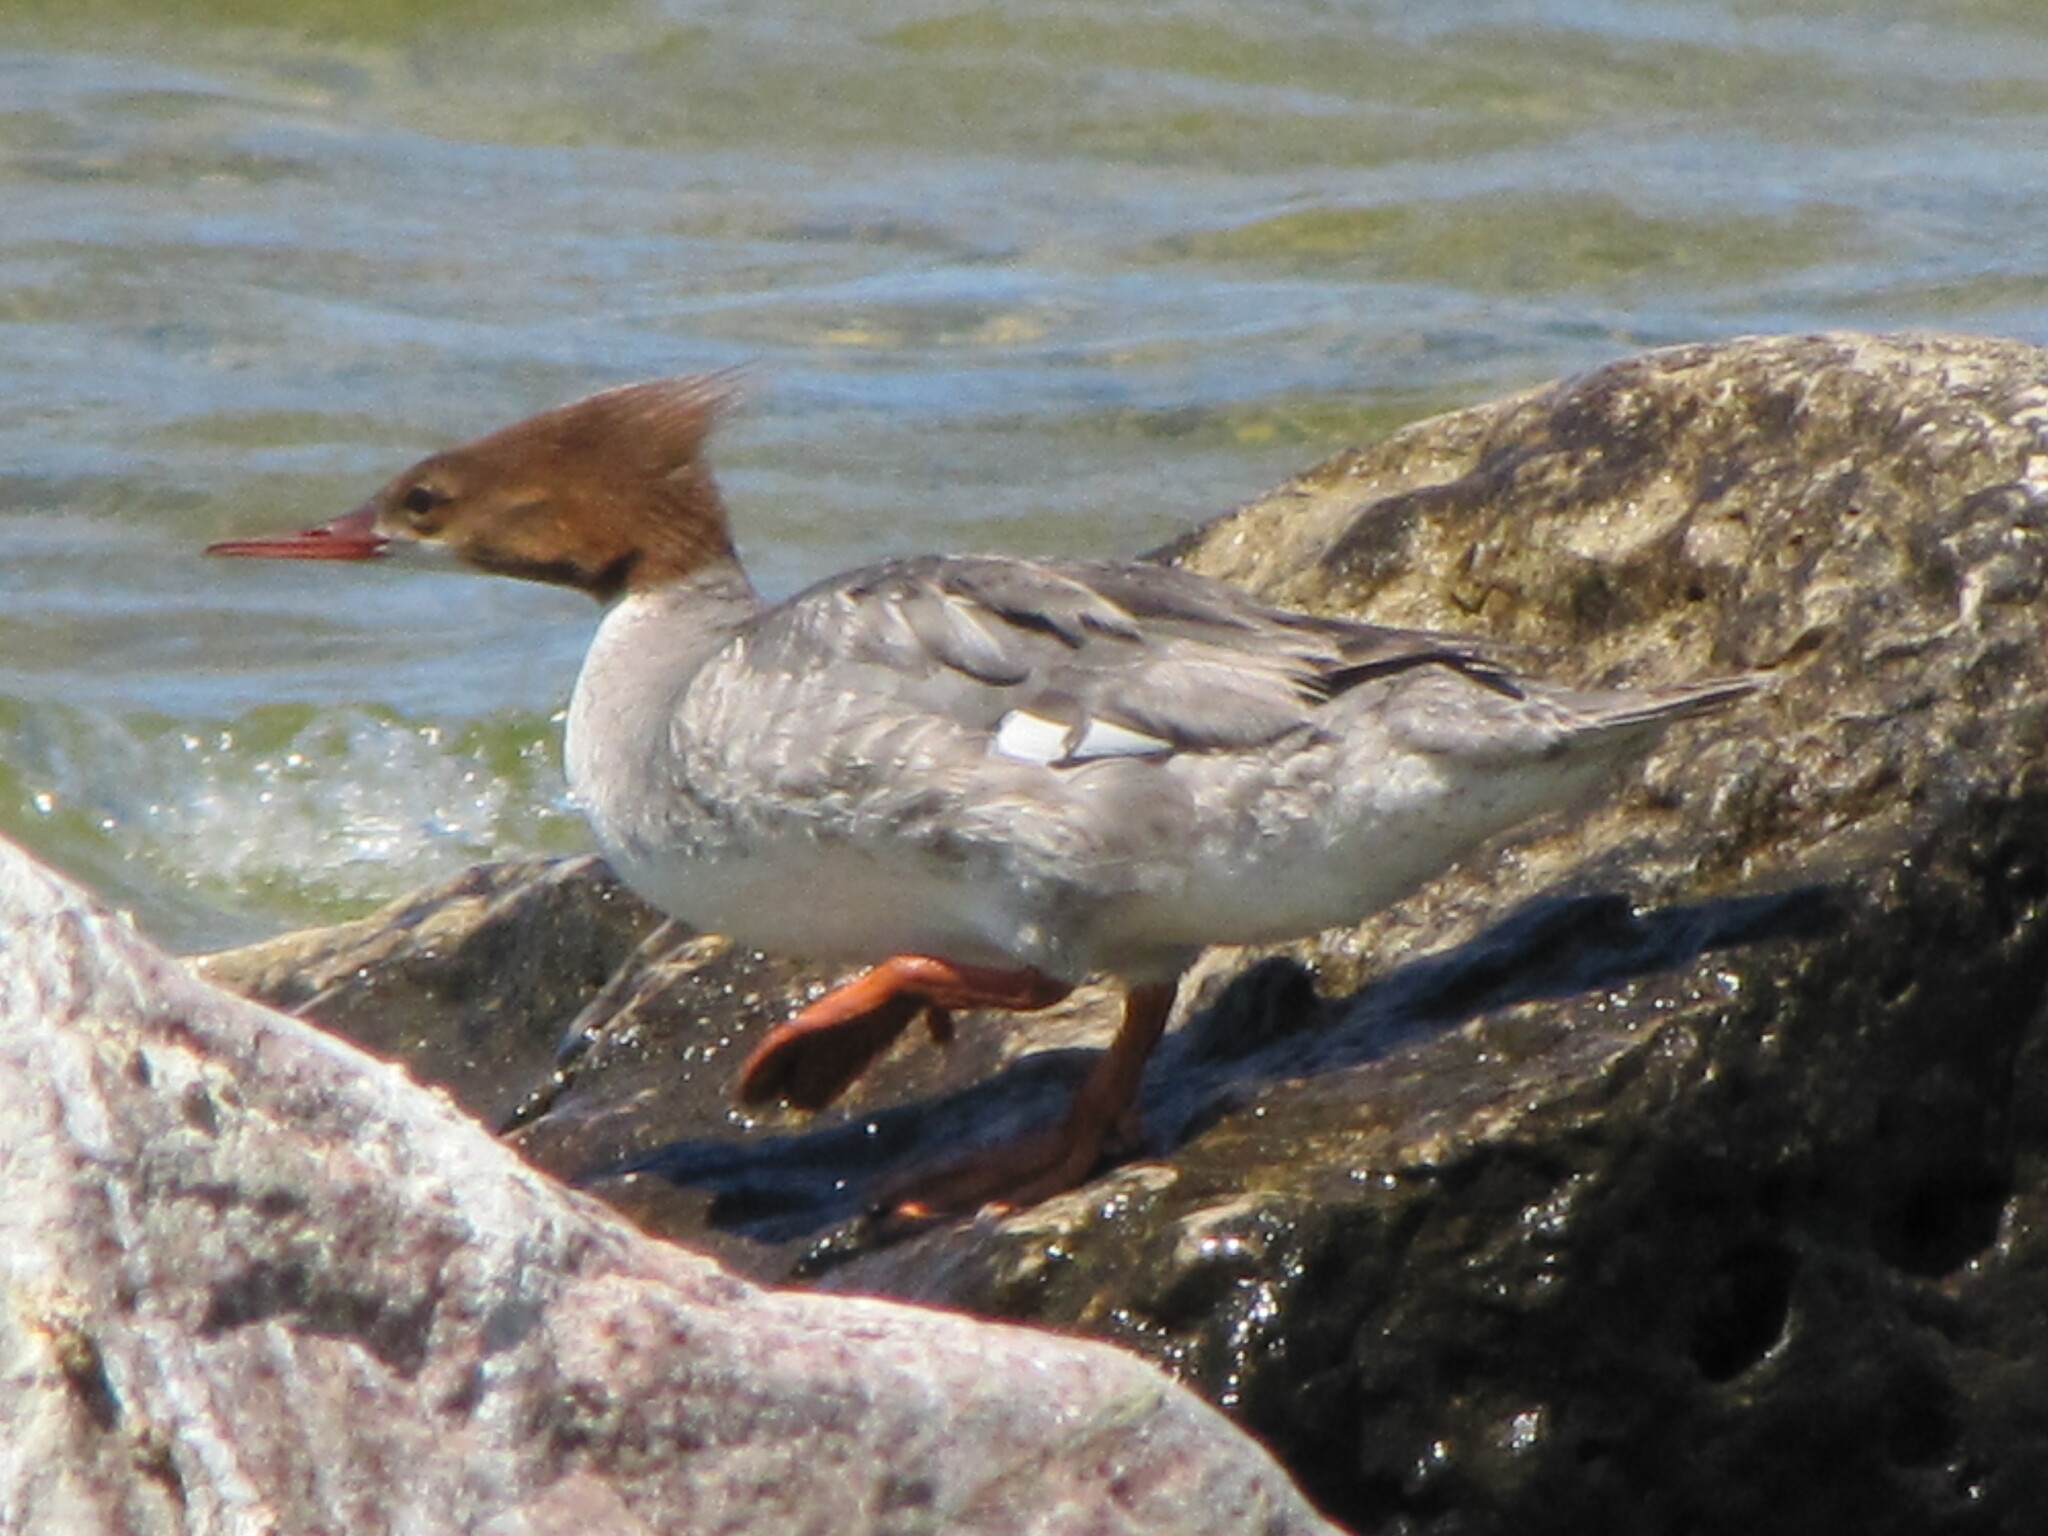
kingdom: Animalia
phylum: Chordata
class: Aves
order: Anseriformes
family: Anatidae
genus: Mergus
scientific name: Mergus merganser
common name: Common merganser
